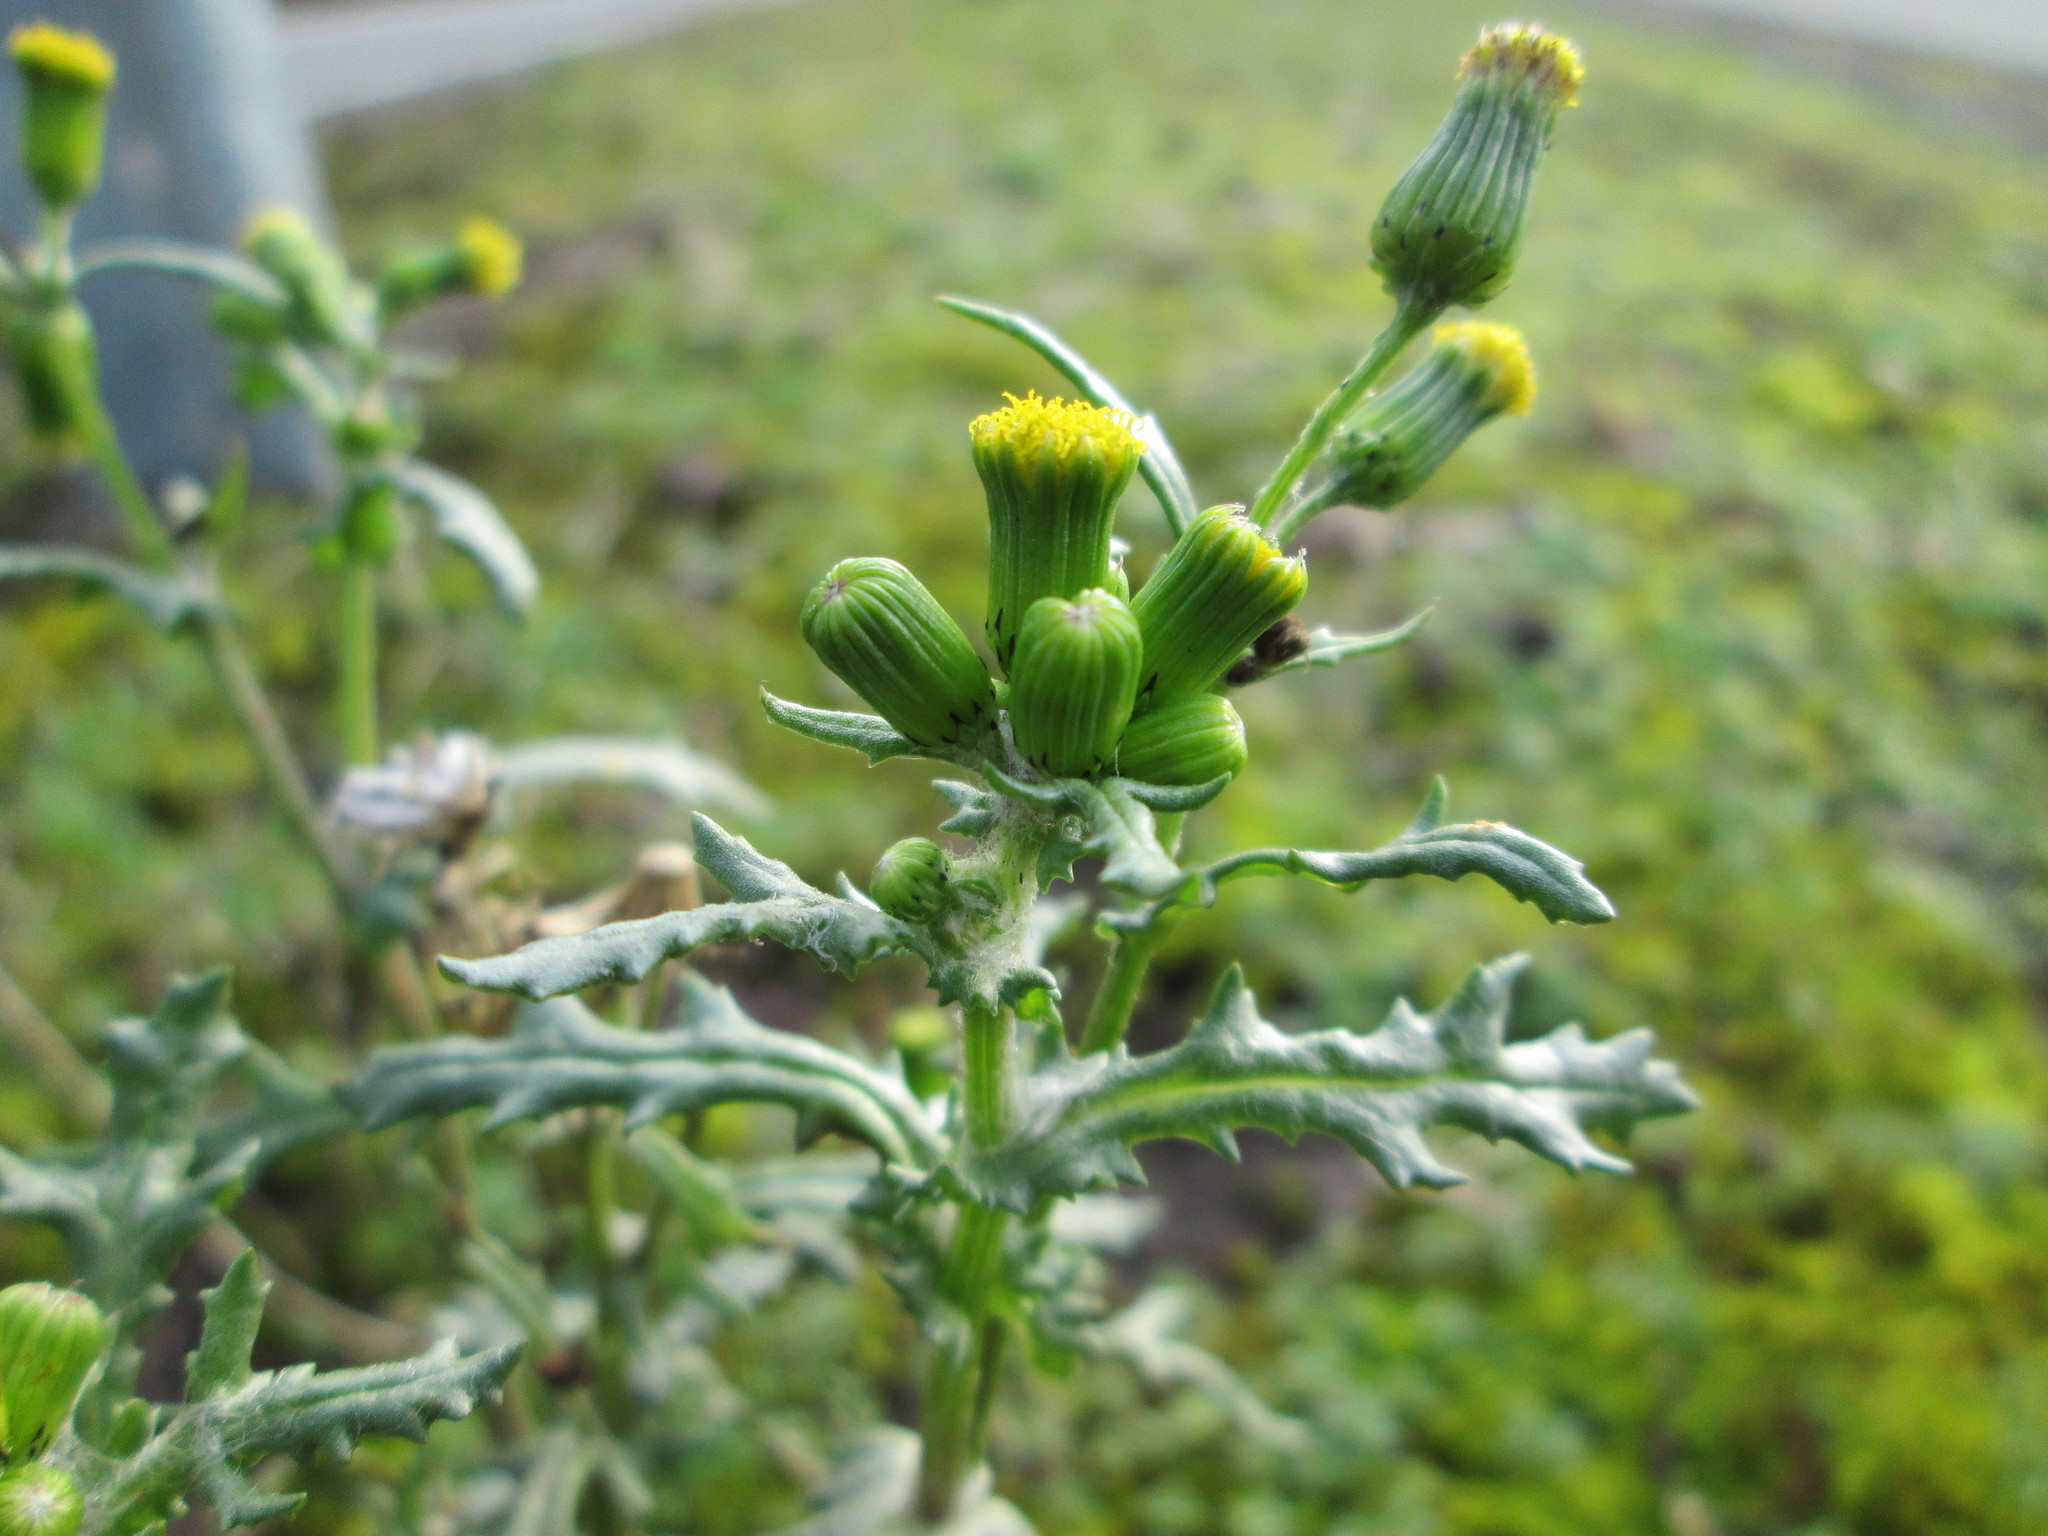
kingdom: Plantae
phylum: Tracheophyta
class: Magnoliopsida
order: Asterales
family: Asteraceae
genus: Senecio
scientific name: Senecio vulgaris
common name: Old-man-in-the-spring
